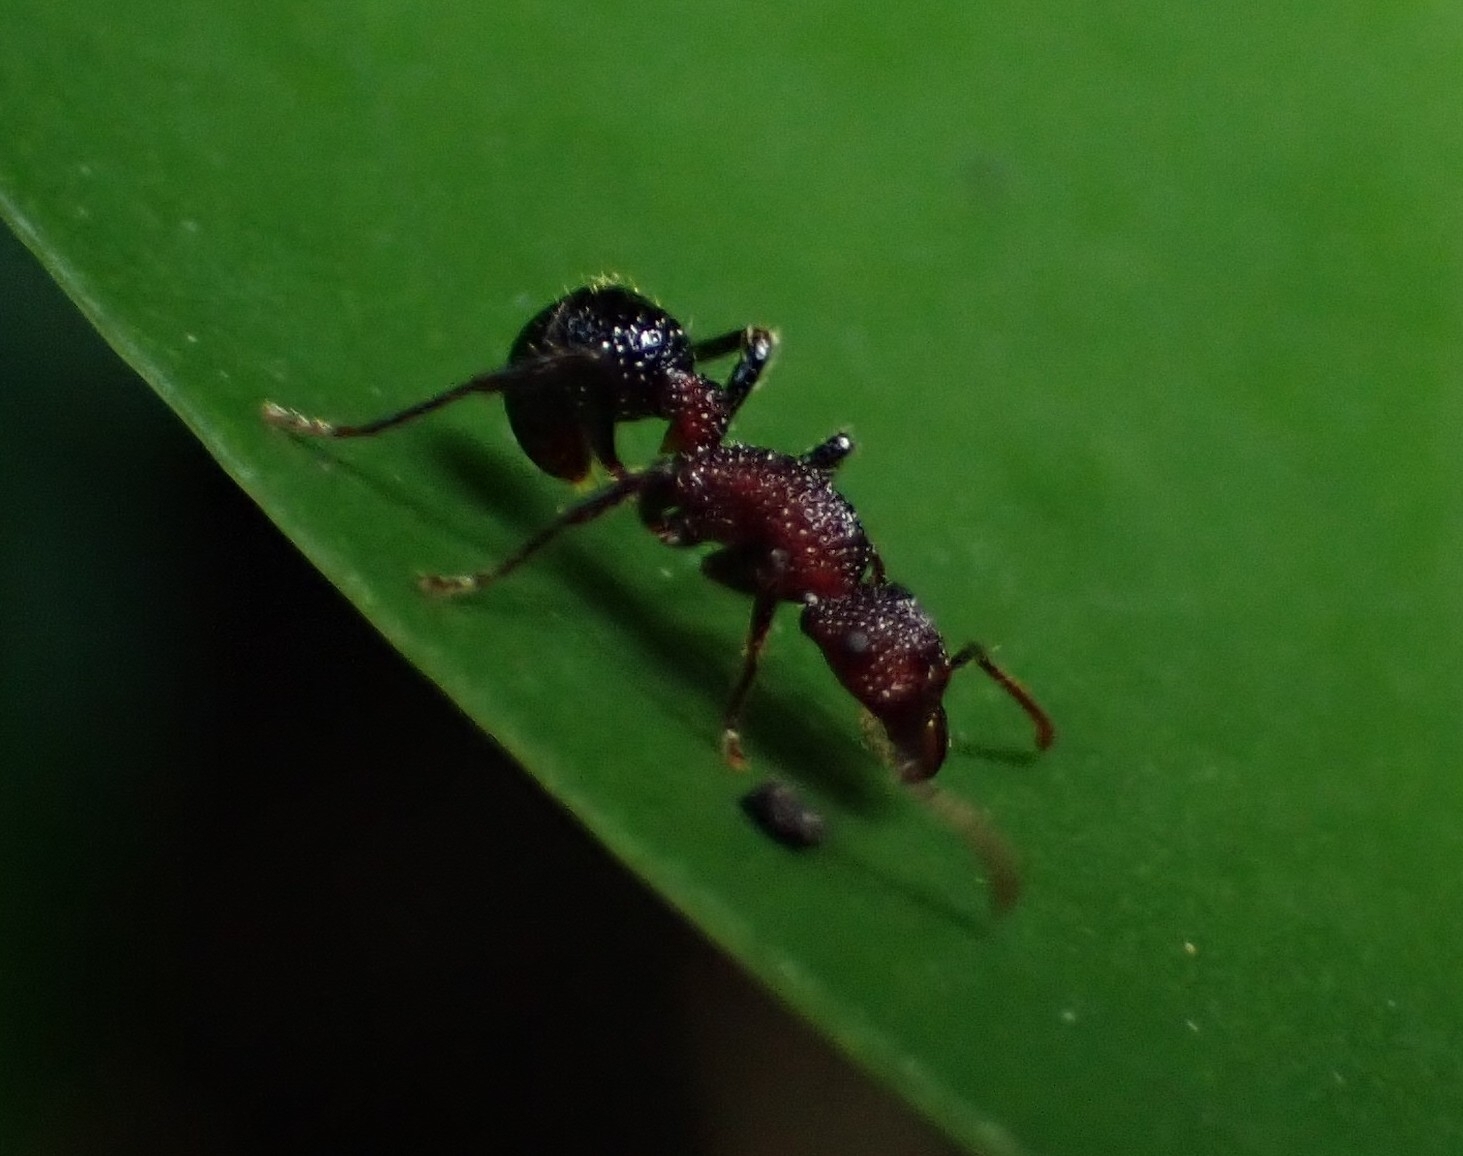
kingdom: Animalia
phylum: Arthropoda
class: Insecta
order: Hymenoptera
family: Formicidae
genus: Stictoponera
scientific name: Stictoponera bicolor
